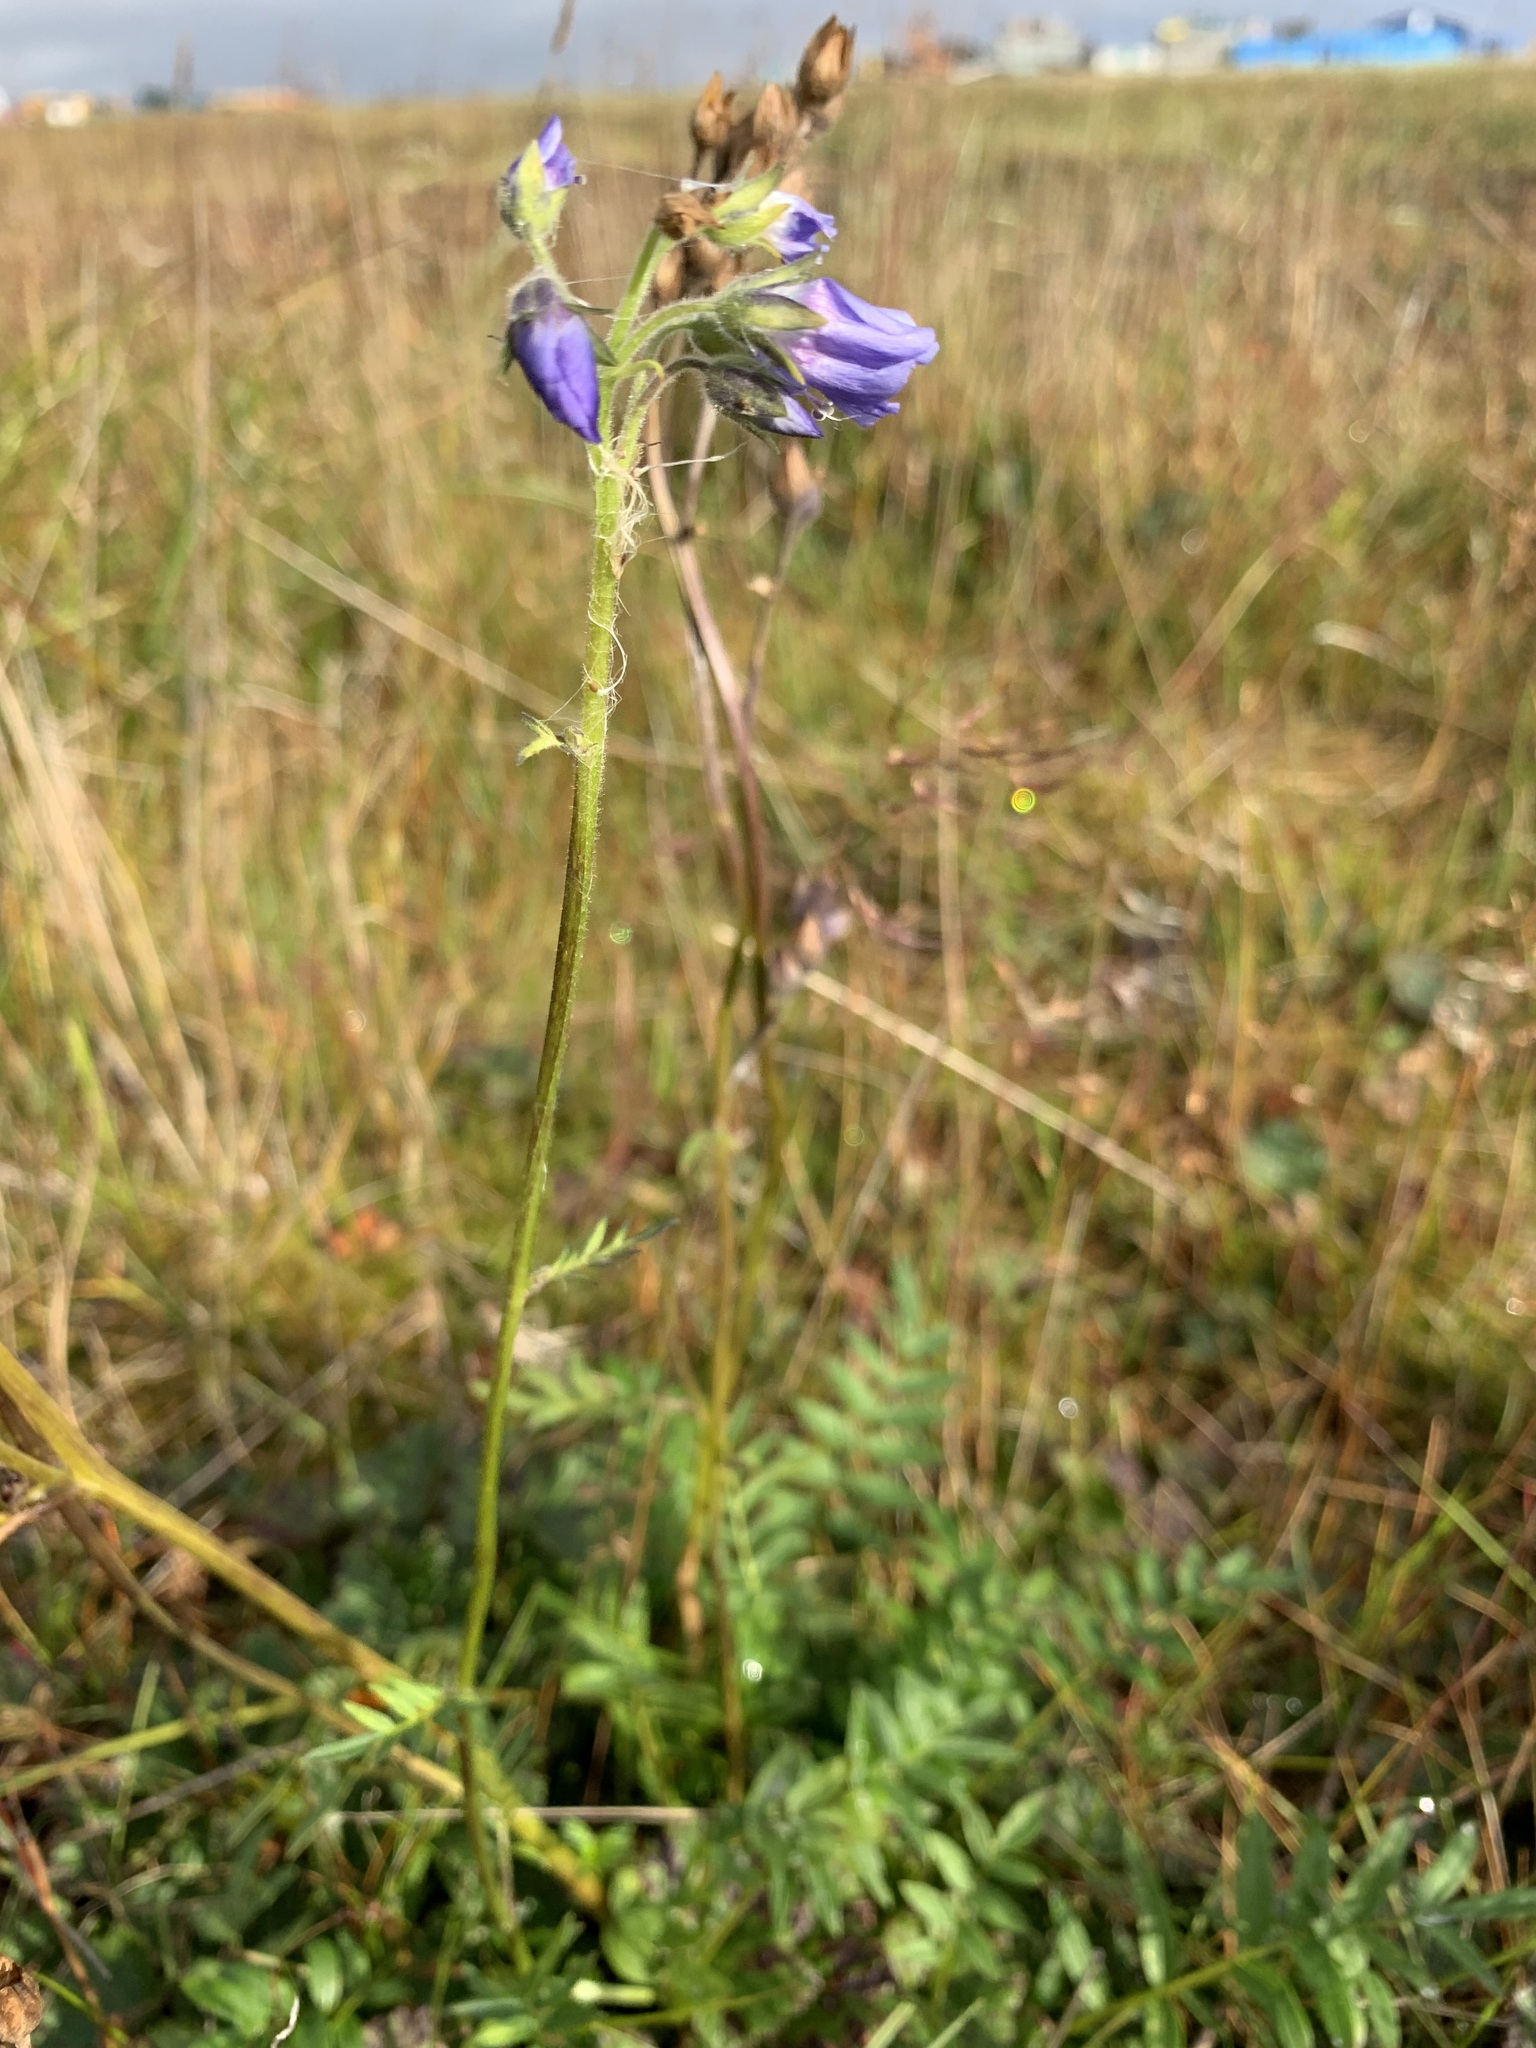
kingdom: Plantae
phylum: Tracheophyta
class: Magnoliopsida
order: Ericales
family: Polemoniaceae
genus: Polemonium
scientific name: Polemonium acutiflorum
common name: Tall jacob's-ladder
